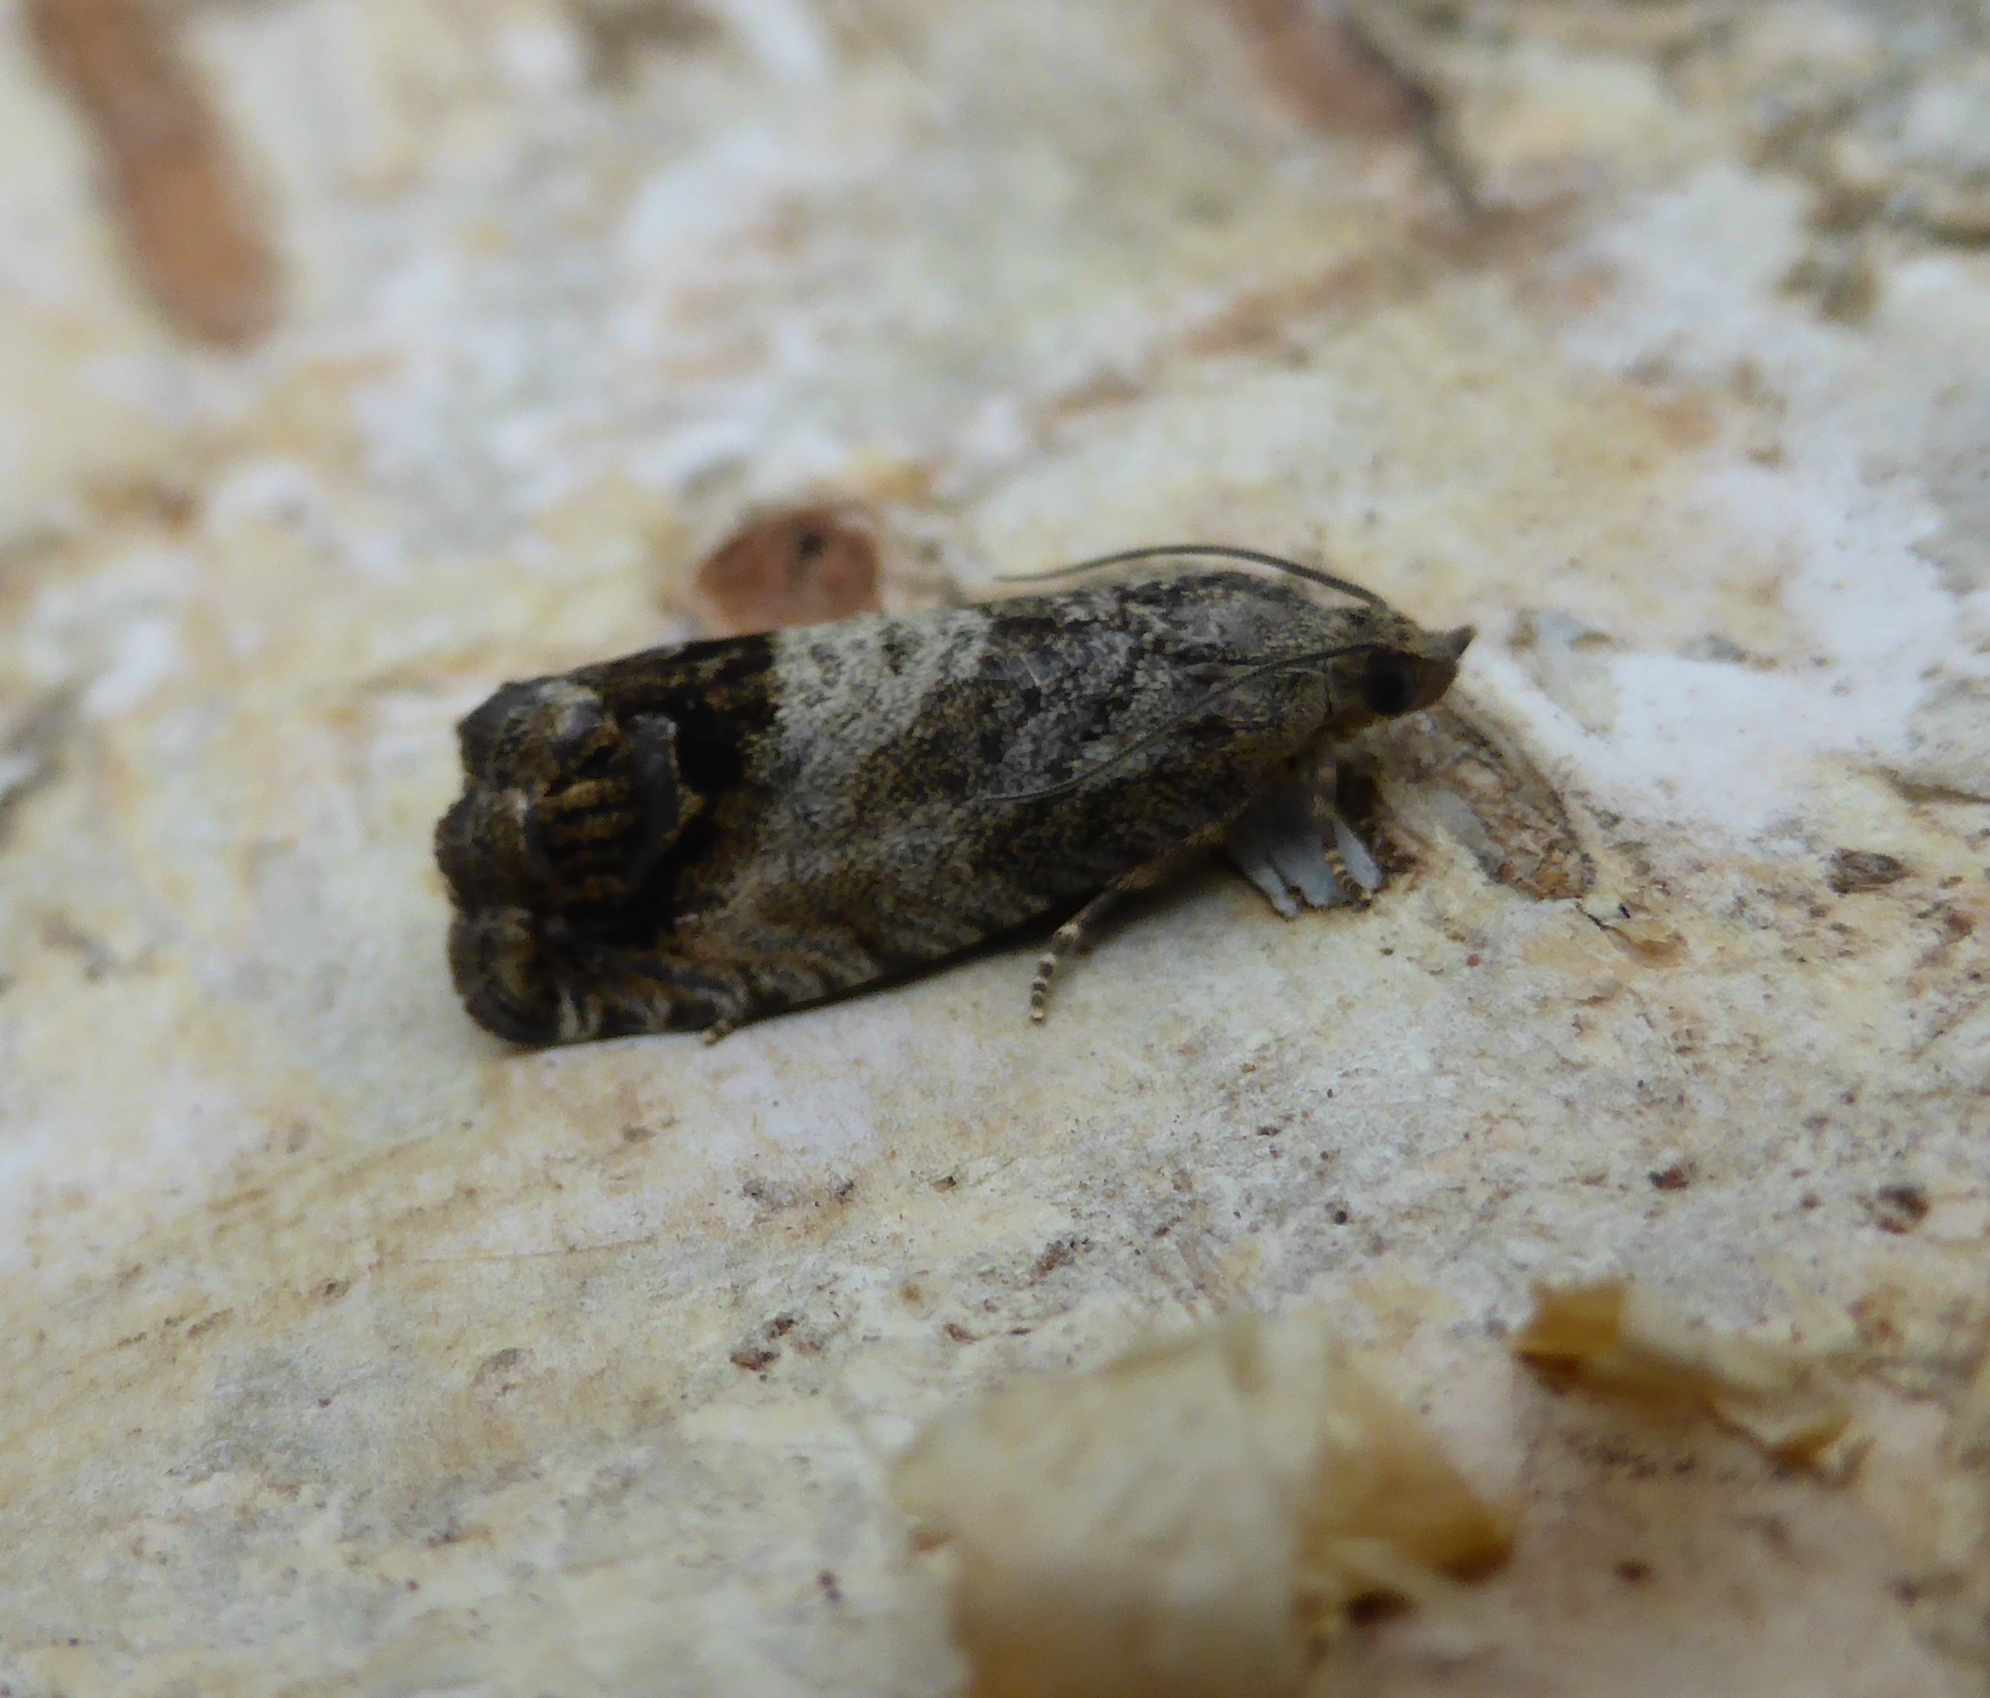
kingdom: Animalia
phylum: Arthropoda
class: Insecta
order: Lepidoptera
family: Tortricidae
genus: Cydia
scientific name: Cydia splendana
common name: De: kastanienwickler, eichenwickler es: oruga de la castaña fr: carpocapse des châtaignes it: cidia o tortrice tardiva delle castagne pt: bichado das castanhas gb: acorn moth, chestnut fruit tortrix
